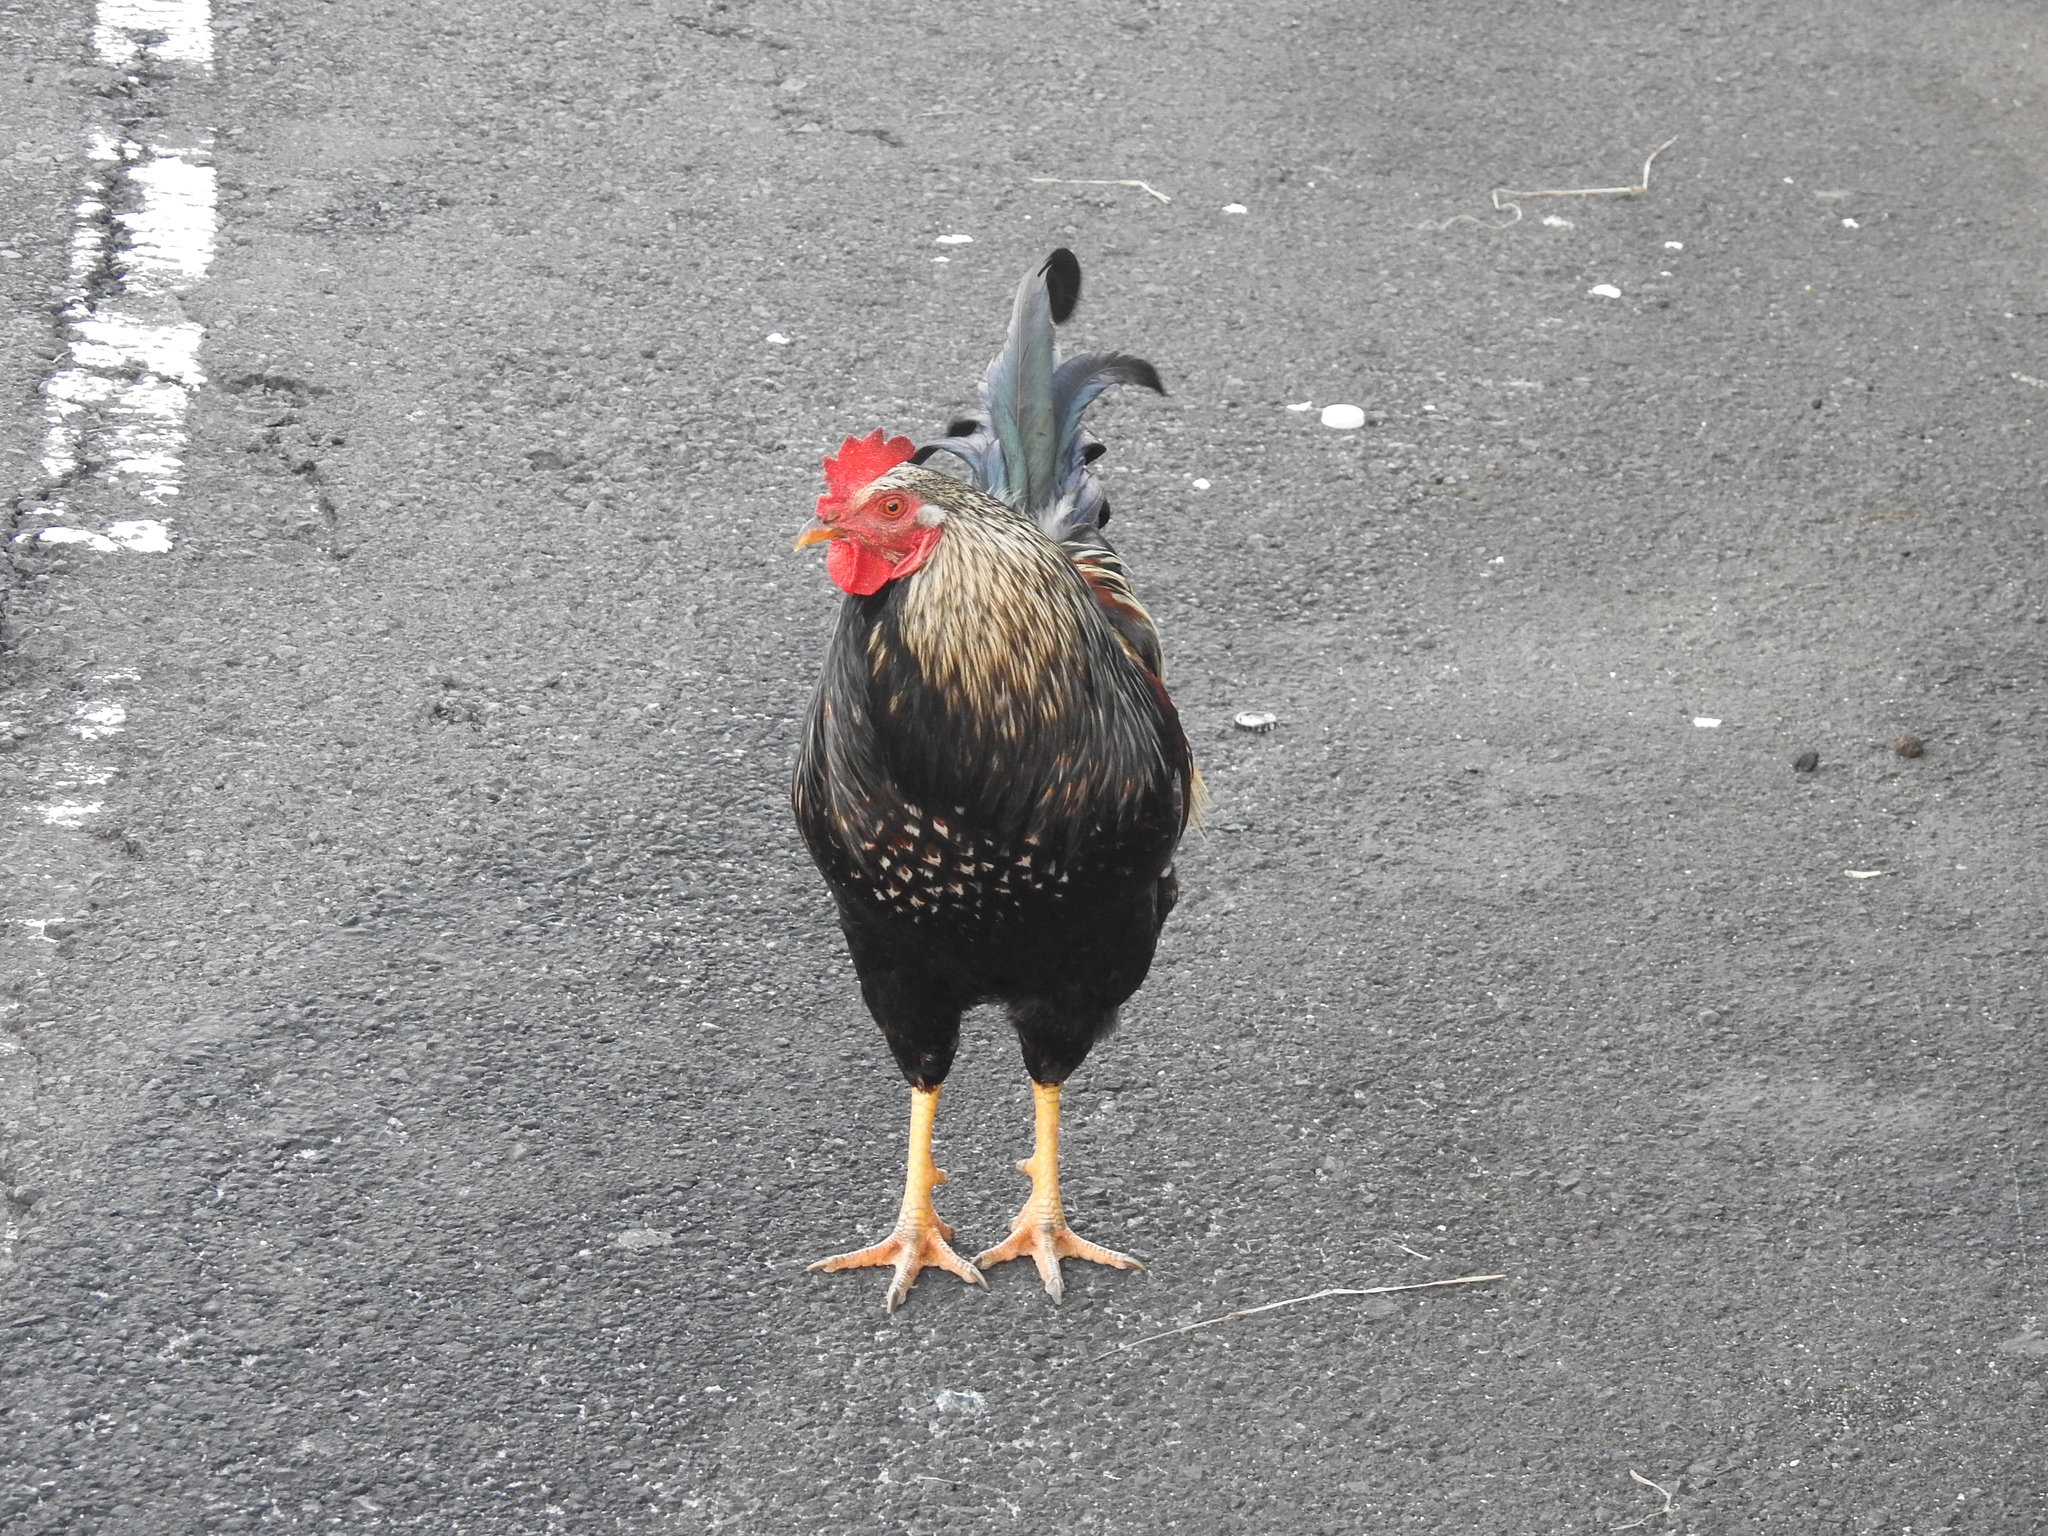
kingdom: Animalia
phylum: Chordata
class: Aves
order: Galliformes
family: Phasianidae
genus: Gallus
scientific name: Gallus gallus
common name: Red junglefowl
